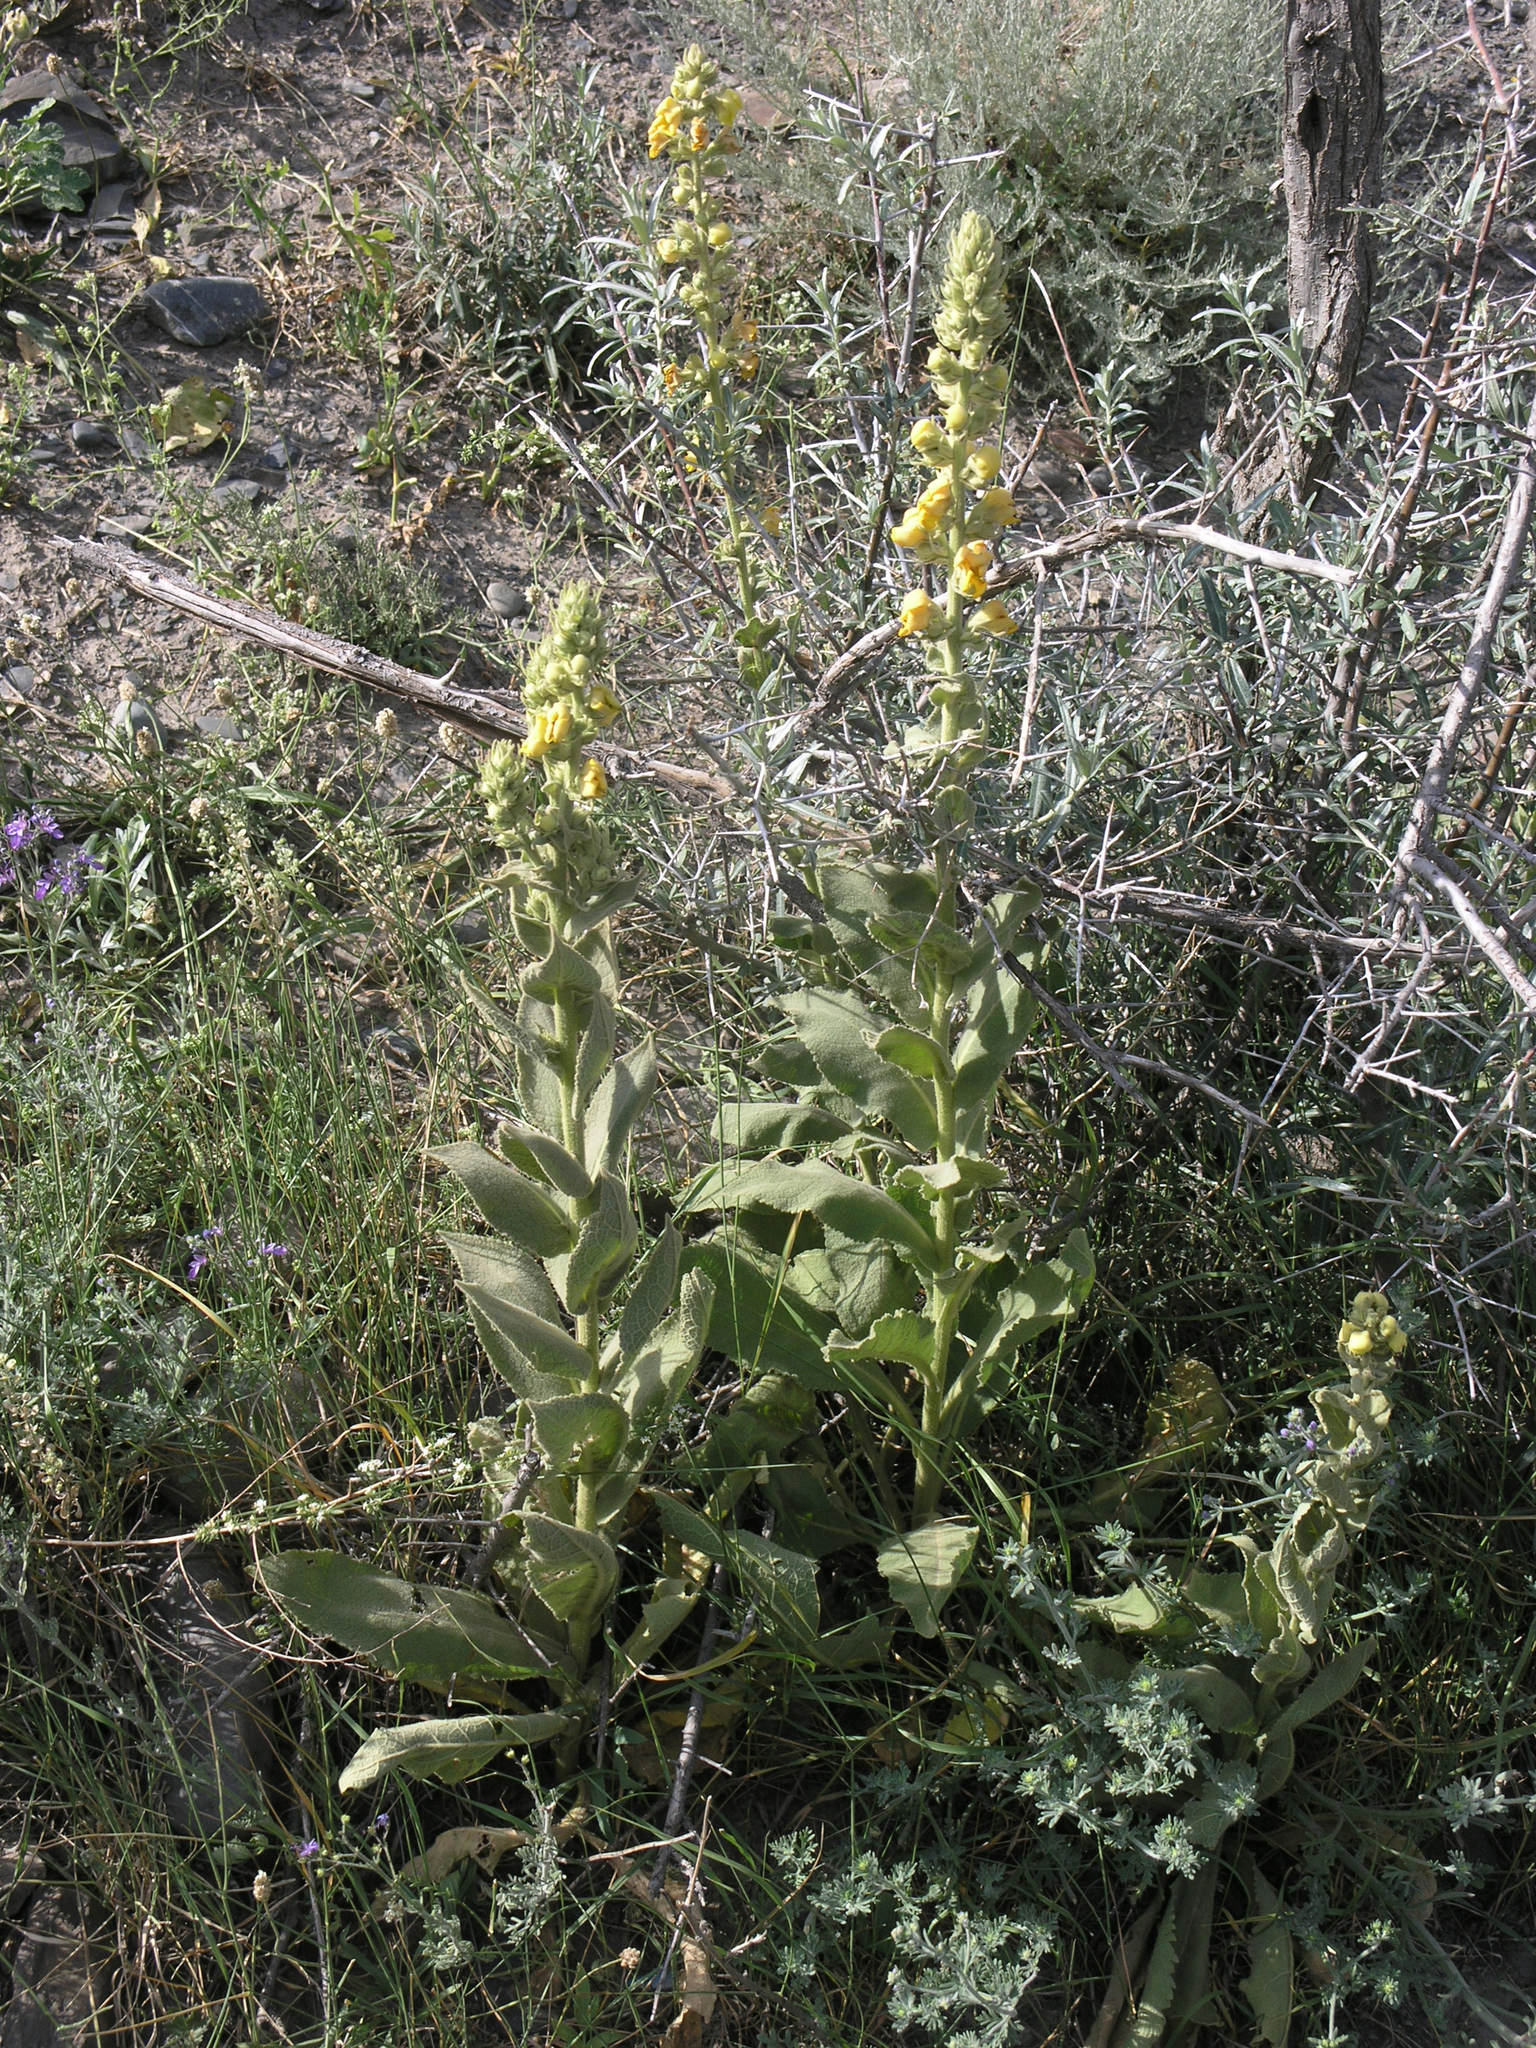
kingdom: Plantae
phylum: Tracheophyta
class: Magnoliopsida
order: Lamiales
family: Scrophulariaceae
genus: Verbascum
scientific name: Verbascum phlomoides
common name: Orange mullein
